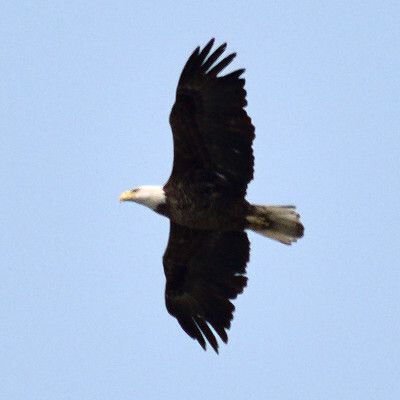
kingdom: Animalia
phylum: Chordata
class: Aves
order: Accipitriformes
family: Accipitridae
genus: Haliaeetus
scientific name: Haliaeetus leucocephalus
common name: Bald eagle
